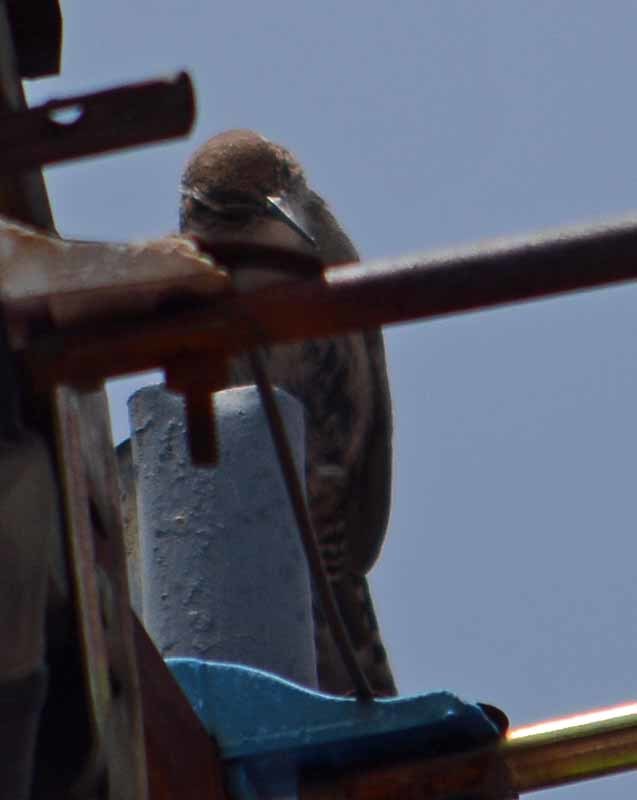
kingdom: Animalia
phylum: Chordata
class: Aves
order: Passeriformes
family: Troglodytidae
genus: Thryomanes
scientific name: Thryomanes bewickii
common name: Bewick's wren
